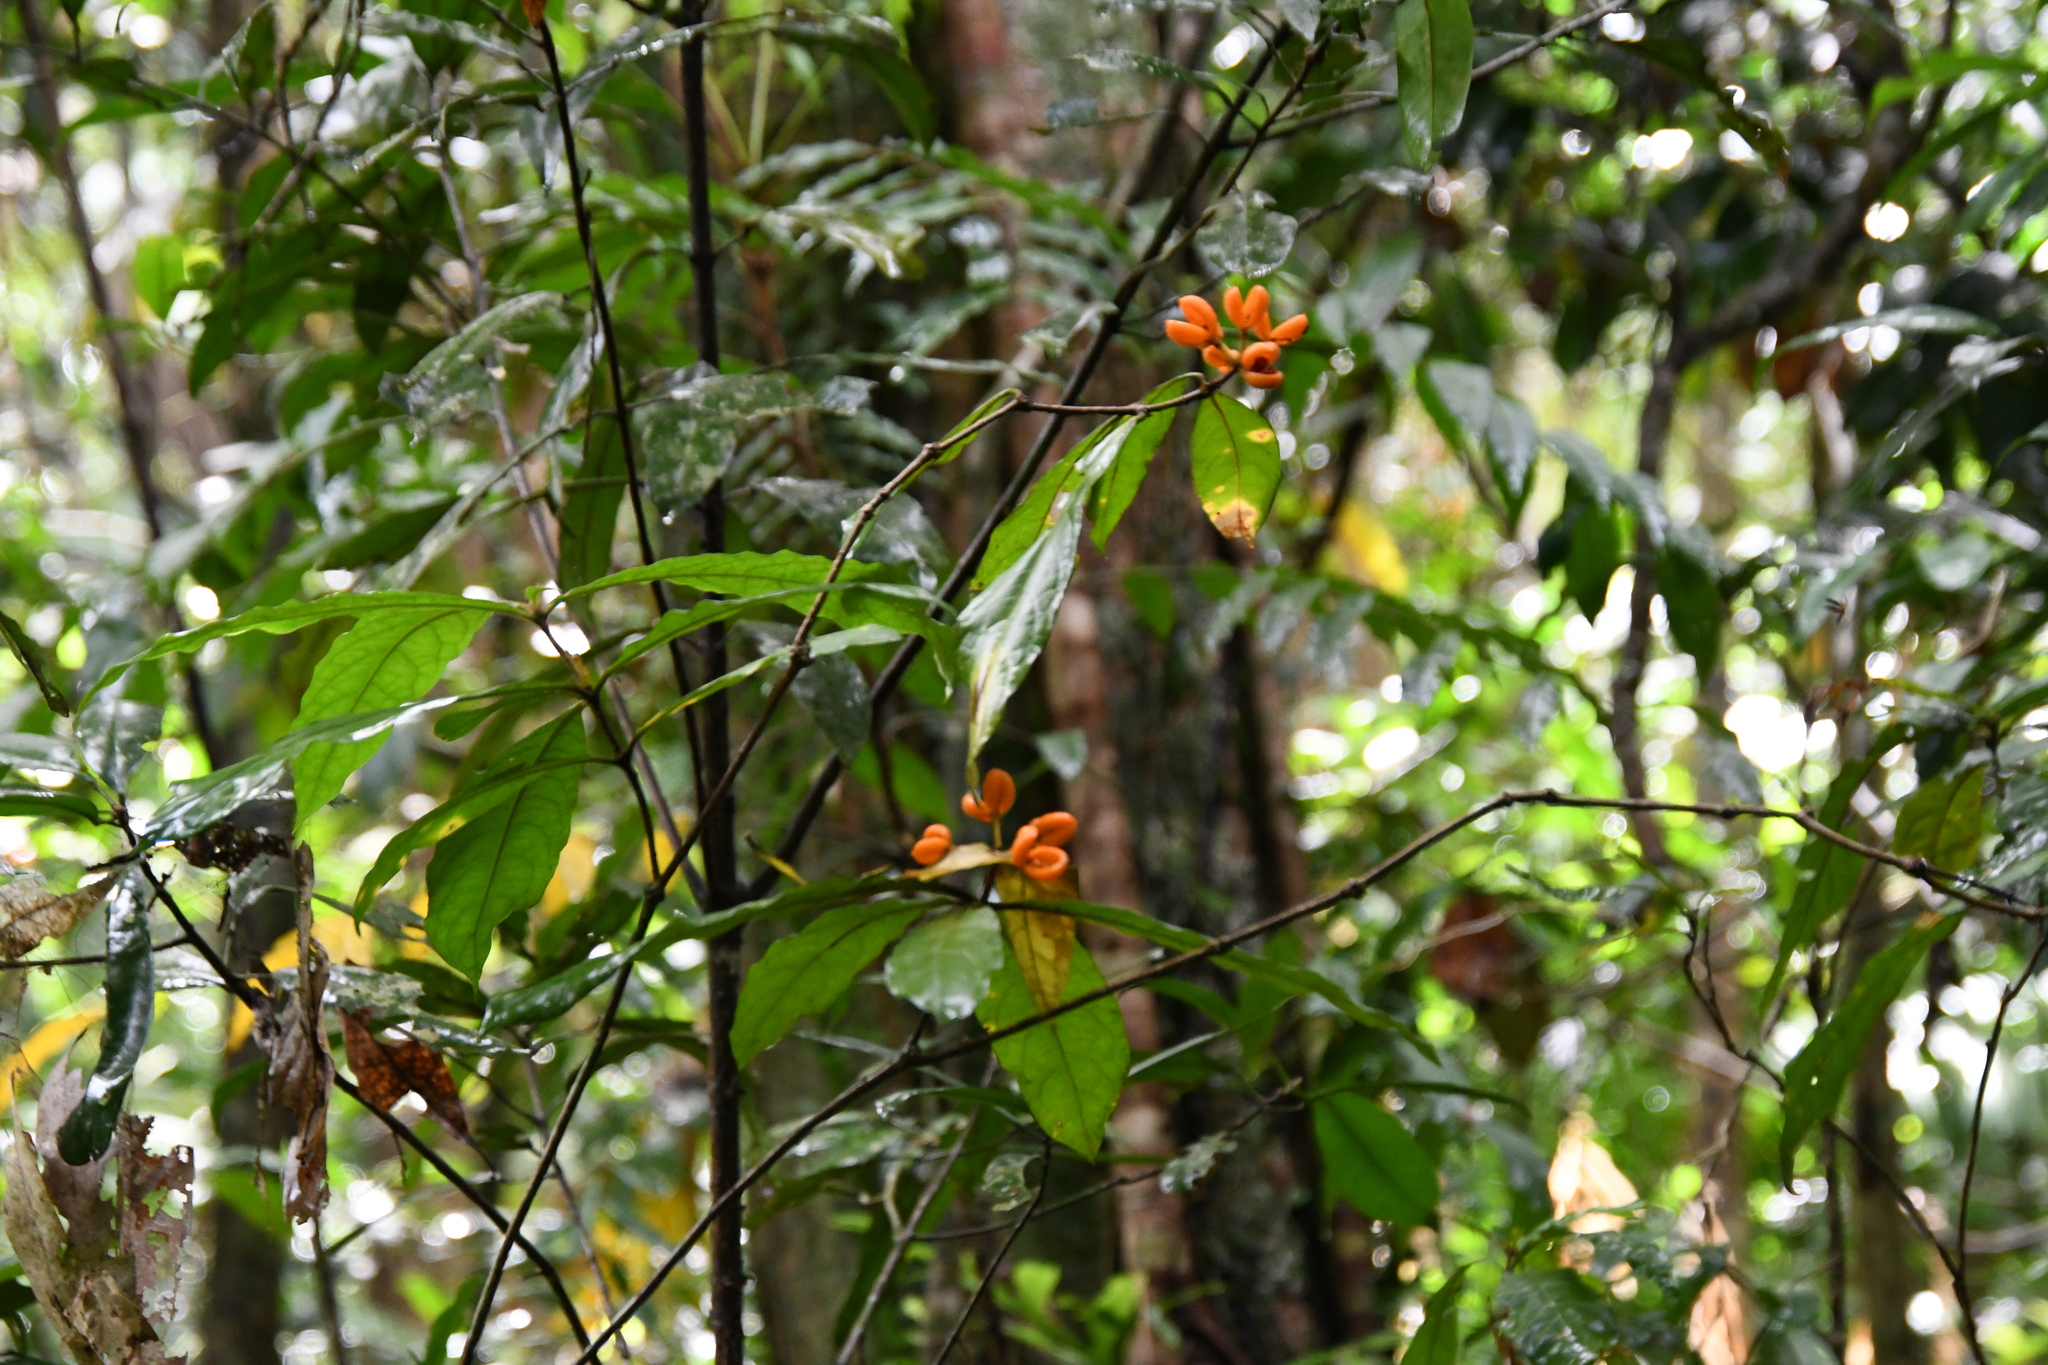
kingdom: Plantae
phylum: Tracheophyta
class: Magnoliopsida
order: Apiales
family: Pittosporaceae
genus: Pittosporum
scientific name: Pittosporum rubiginosum
